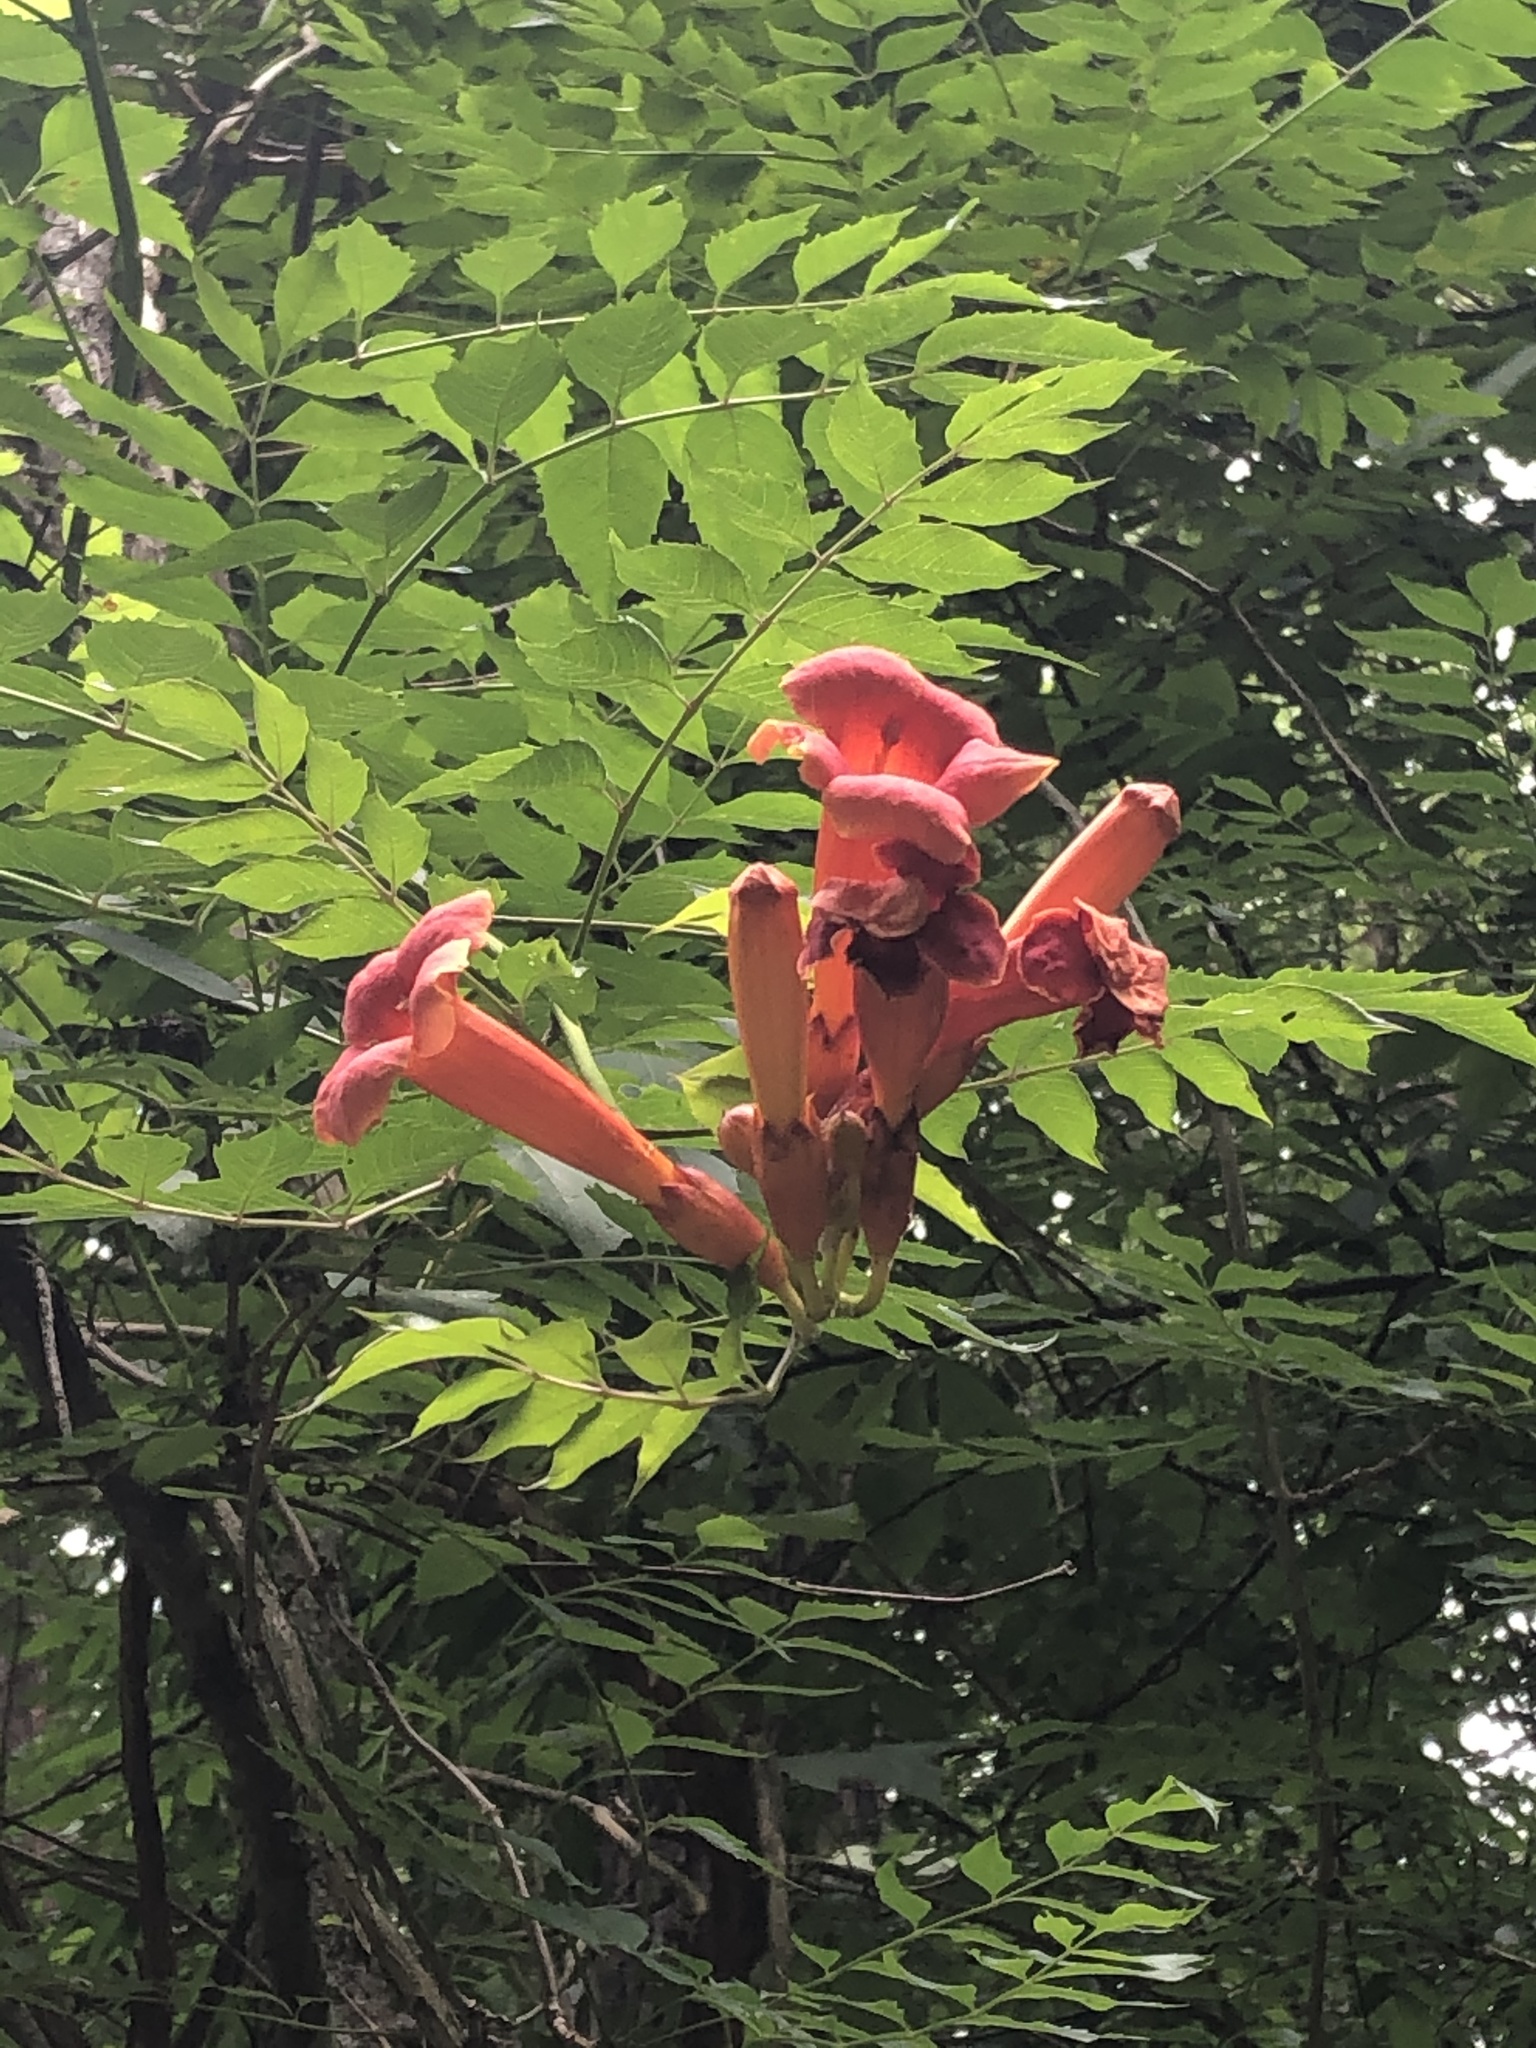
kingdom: Plantae
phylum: Tracheophyta
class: Magnoliopsida
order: Lamiales
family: Bignoniaceae
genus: Campsis
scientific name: Campsis radicans
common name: Trumpet-creeper
